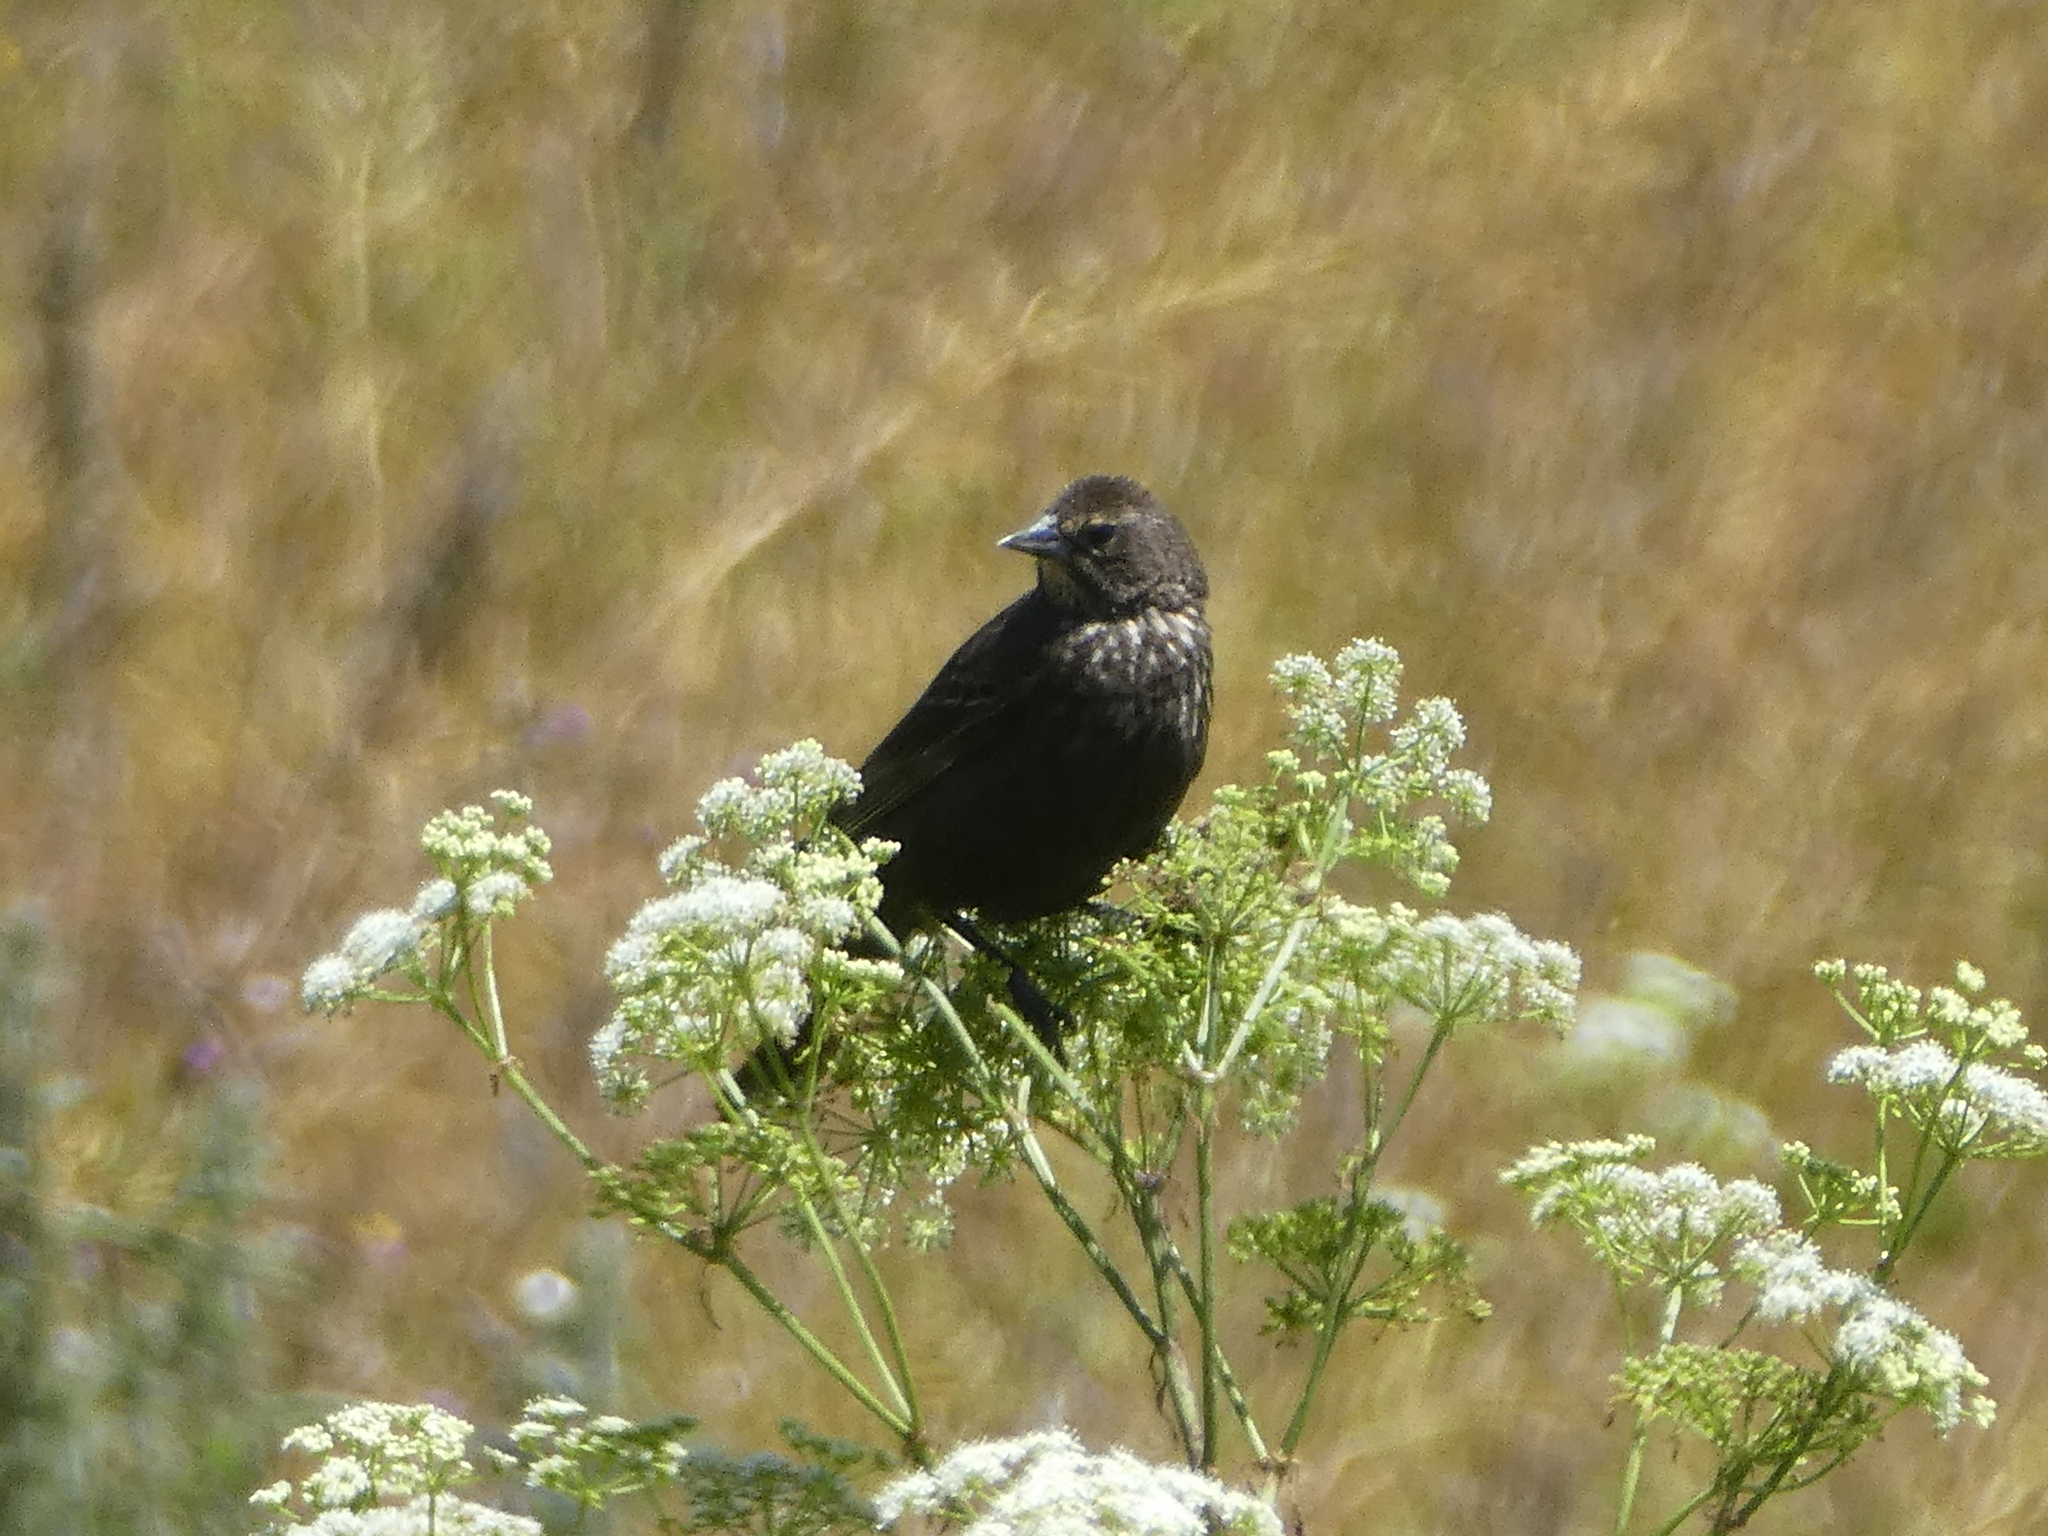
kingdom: Animalia
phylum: Chordata
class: Aves
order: Passeriformes
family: Icteridae
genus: Agelaius
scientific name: Agelaius phoeniceus
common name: Red-winged blackbird
